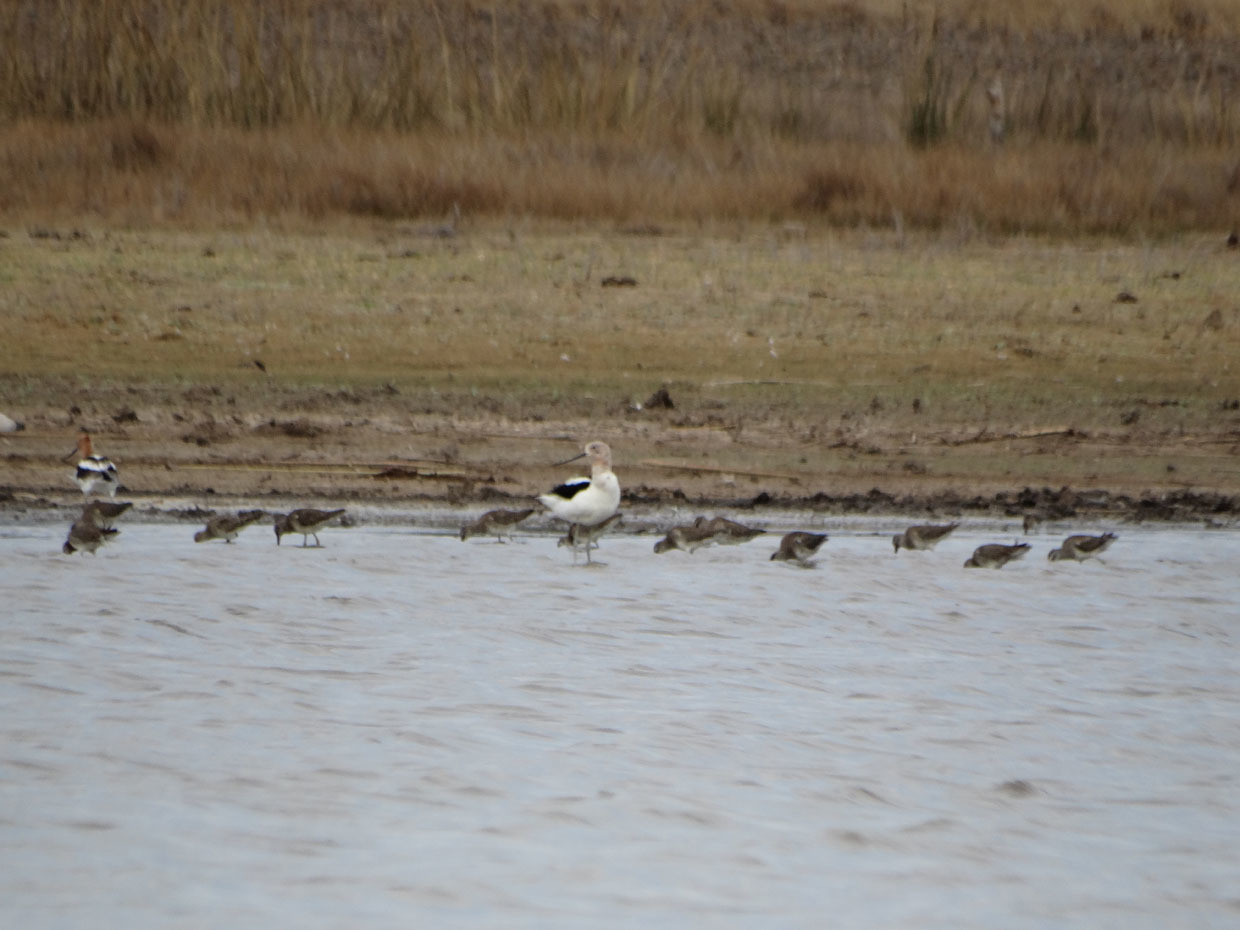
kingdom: Animalia
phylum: Chordata
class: Aves
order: Charadriiformes
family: Recurvirostridae
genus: Recurvirostra
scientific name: Recurvirostra americana
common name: American avocet
